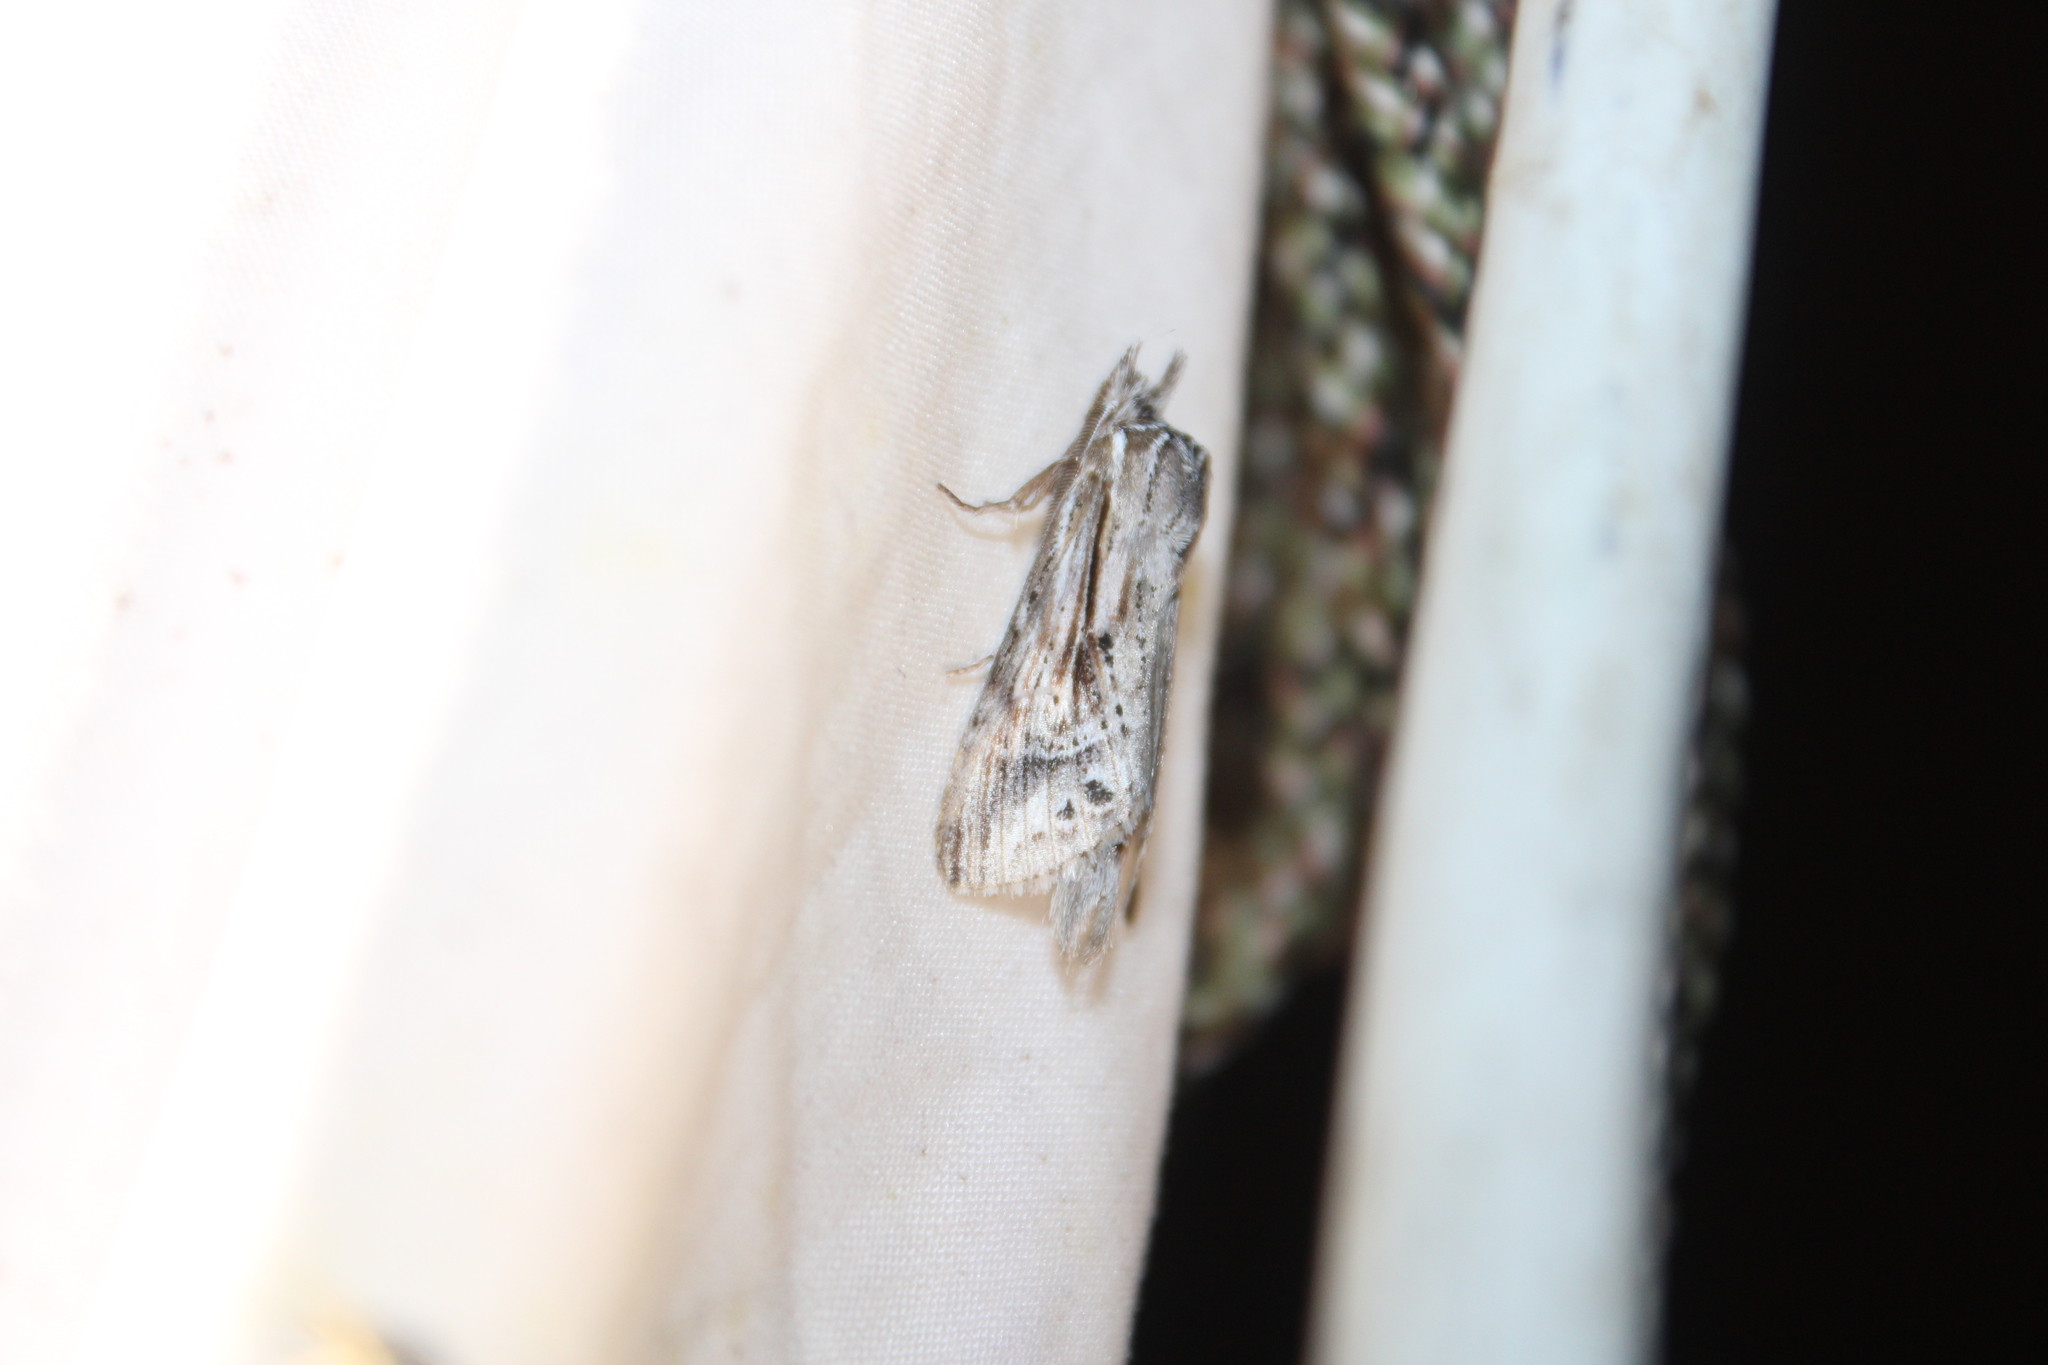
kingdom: Animalia
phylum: Arthropoda
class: Insecta
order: Lepidoptera
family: Notodontidae
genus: Dasylophia
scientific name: Dasylophia anguina
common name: Black-spotted prominent
